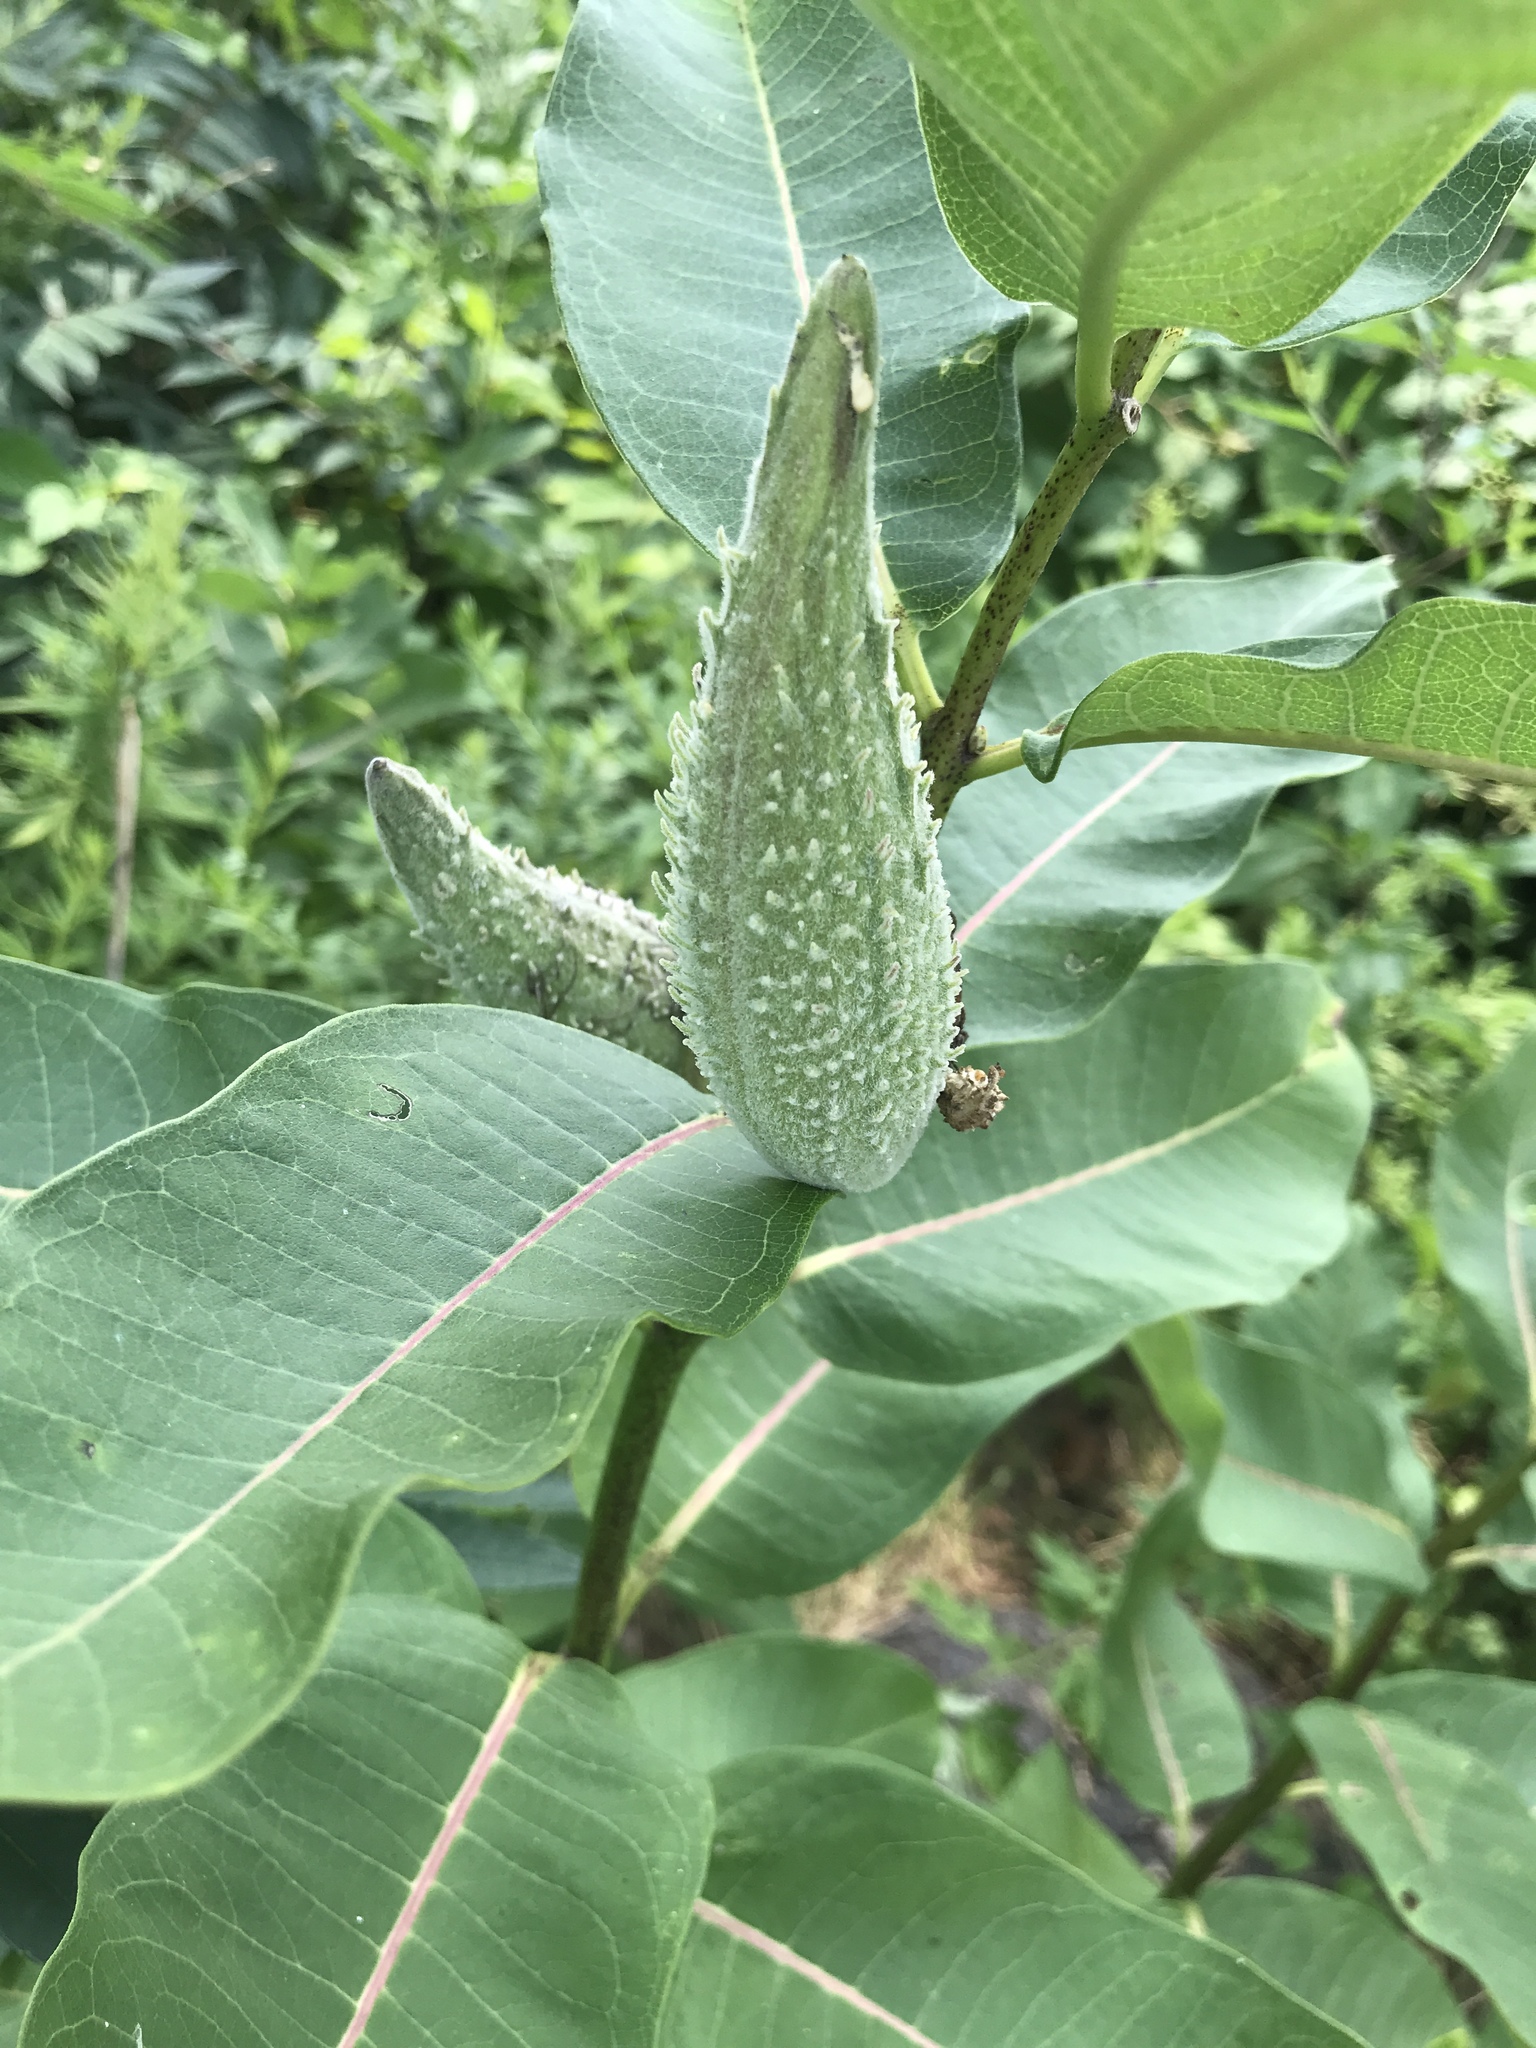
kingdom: Plantae
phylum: Tracheophyta
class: Magnoliopsida
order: Gentianales
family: Apocynaceae
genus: Asclepias
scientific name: Asclepias syriaca
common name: Common milkweed
